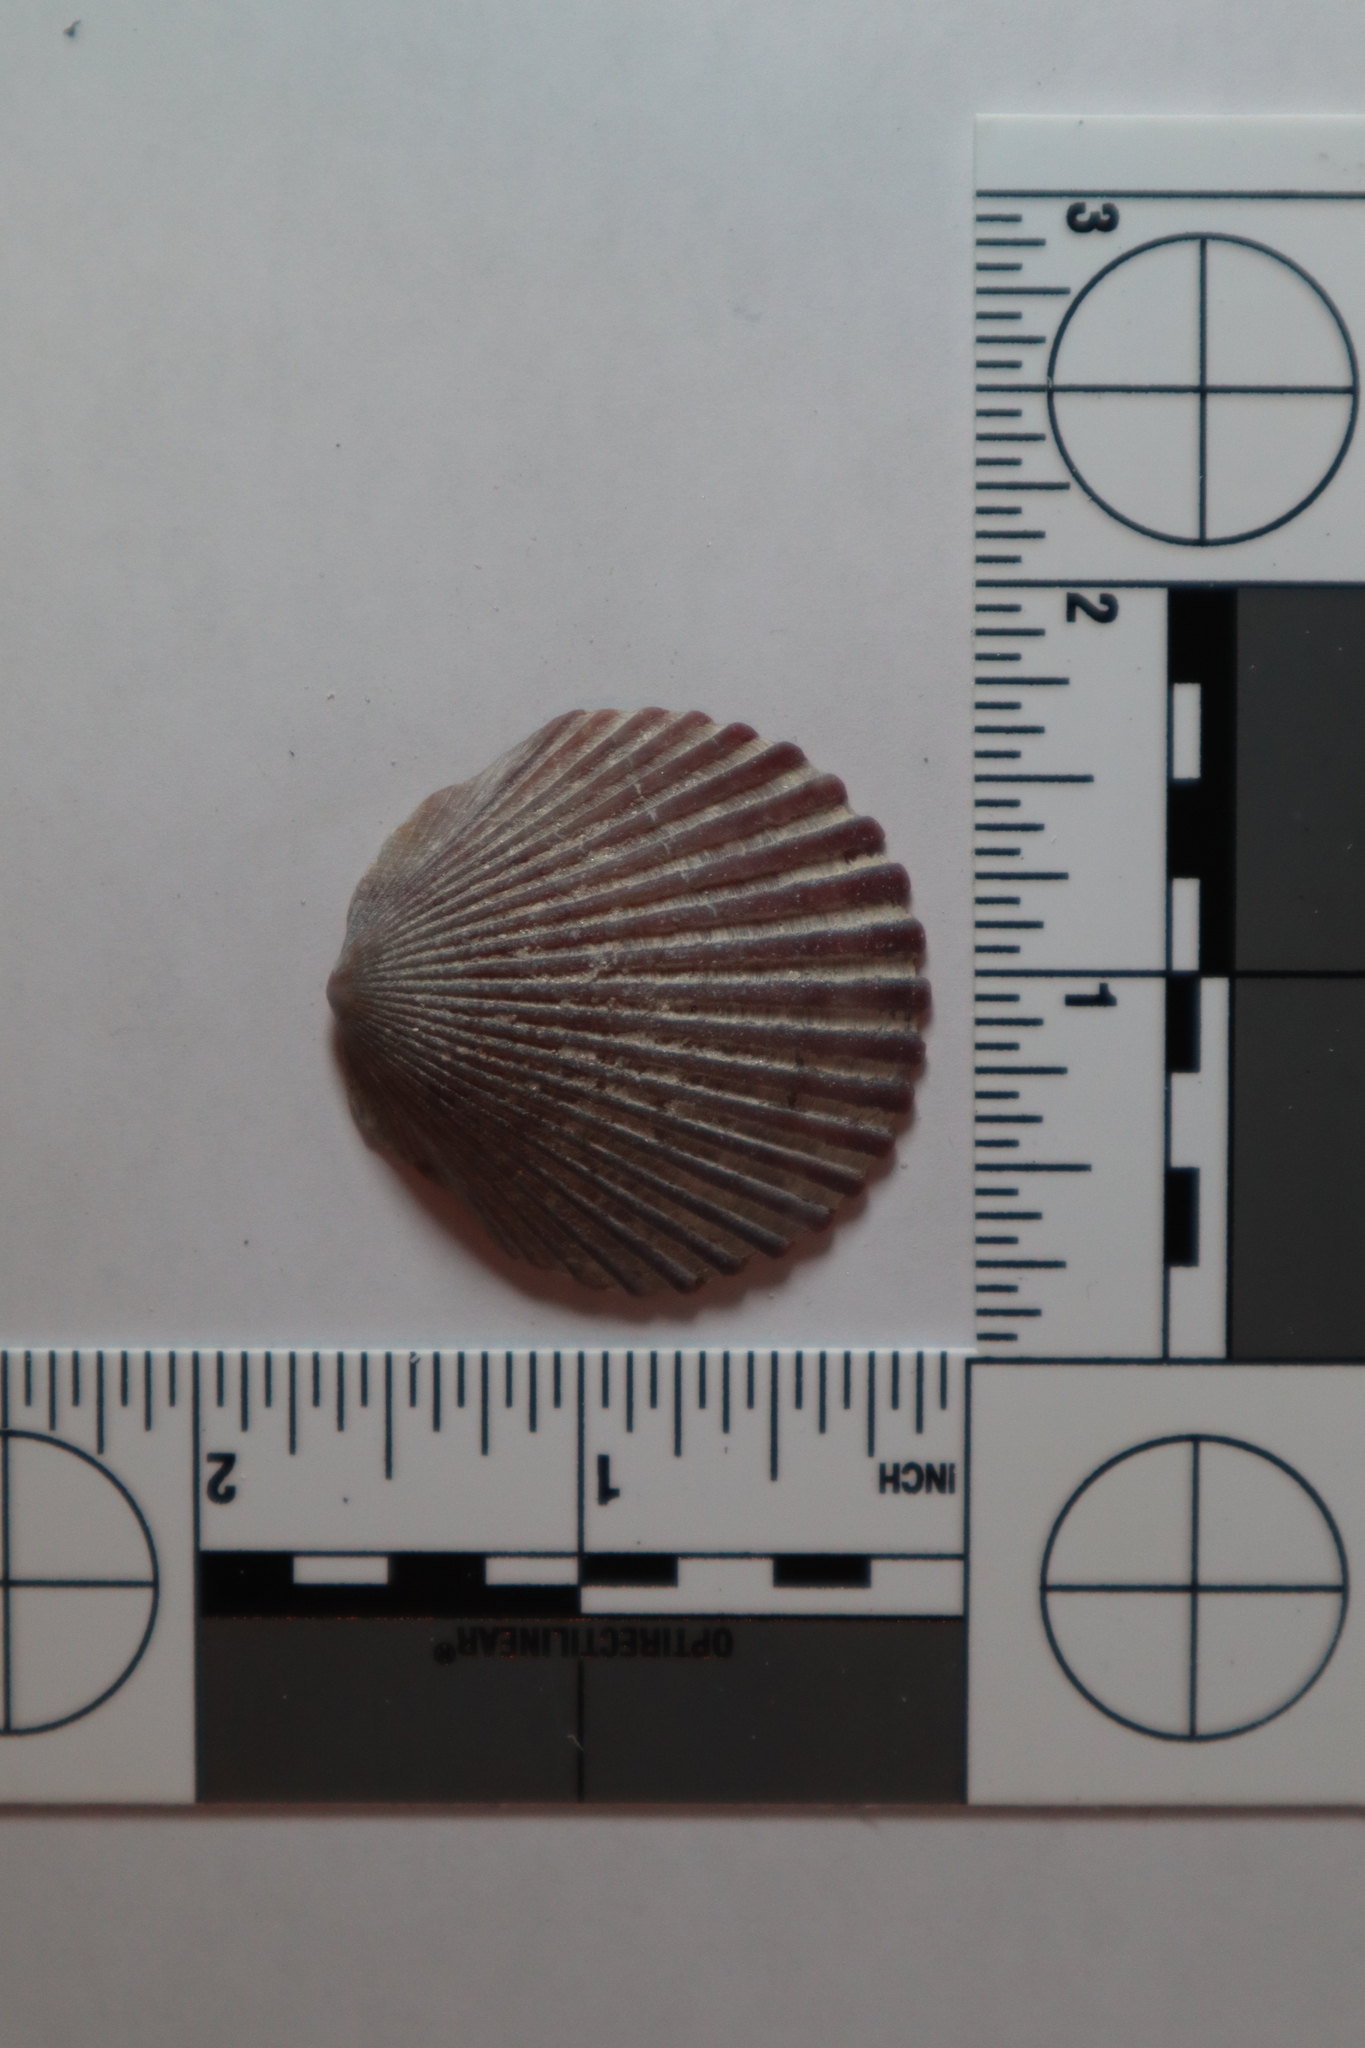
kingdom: Animalia
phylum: Mollusca
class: Bivalvia
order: Pectinida
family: Pectinidae
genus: Argopecten
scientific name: Argopecten irradians
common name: Atlantic bay scallop
